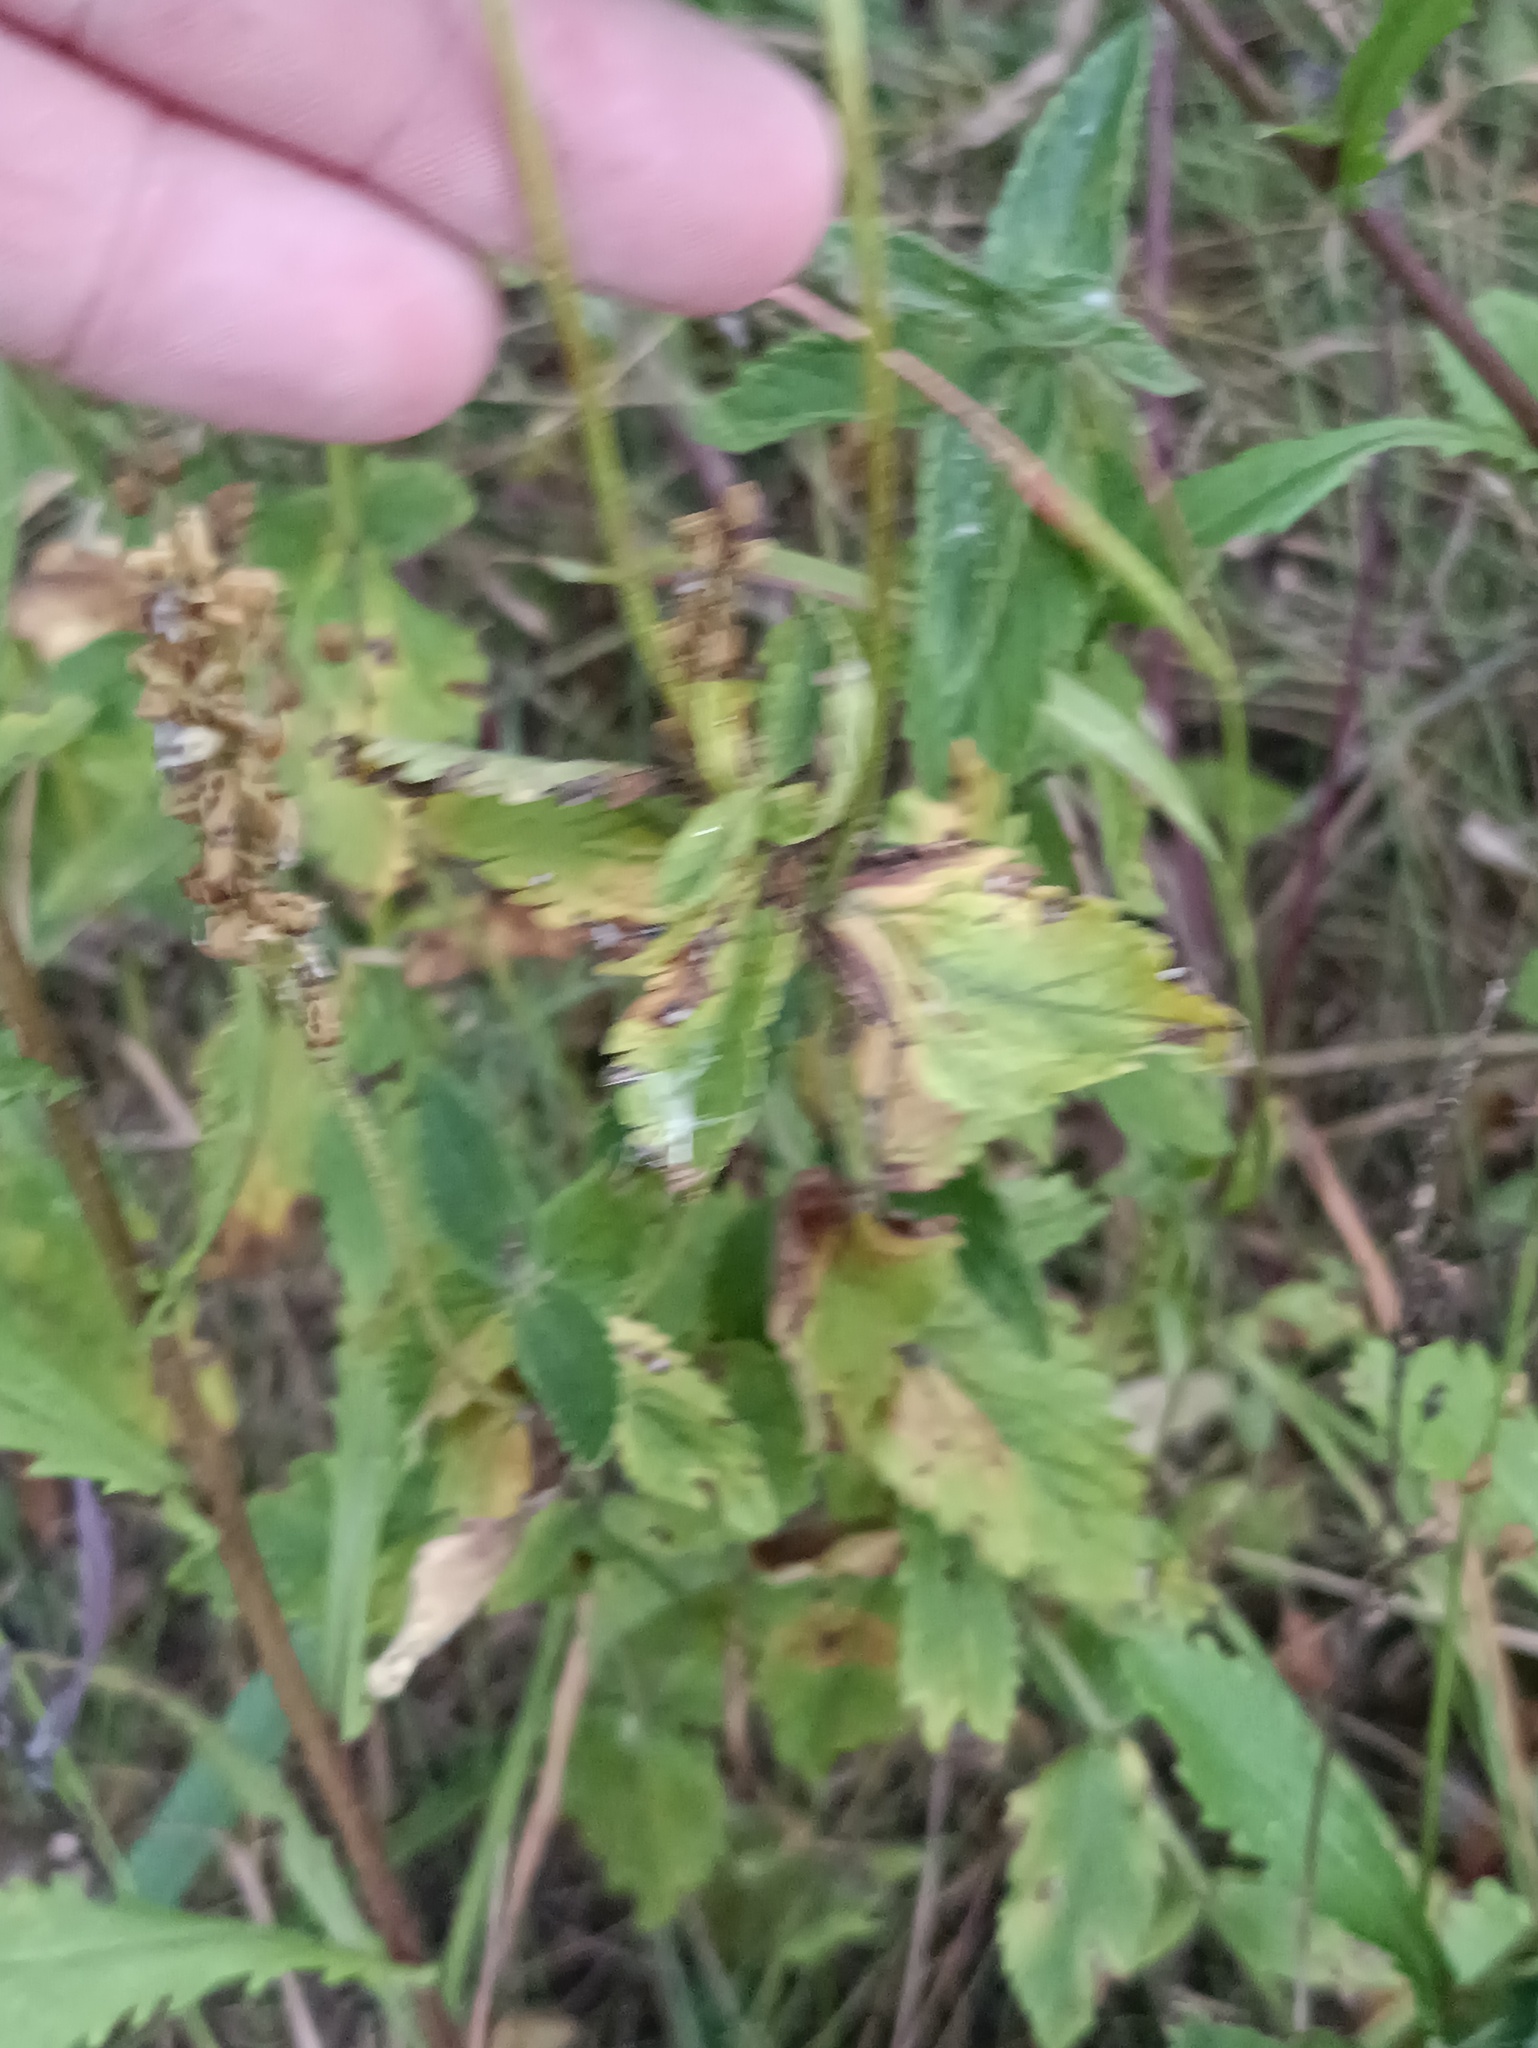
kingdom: Plantae
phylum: Tracheophyta
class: Magnoliopsida
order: Lamiales
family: Plantaginaceae
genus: Veronica
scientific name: Veronica teucrium
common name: Large speedwell
